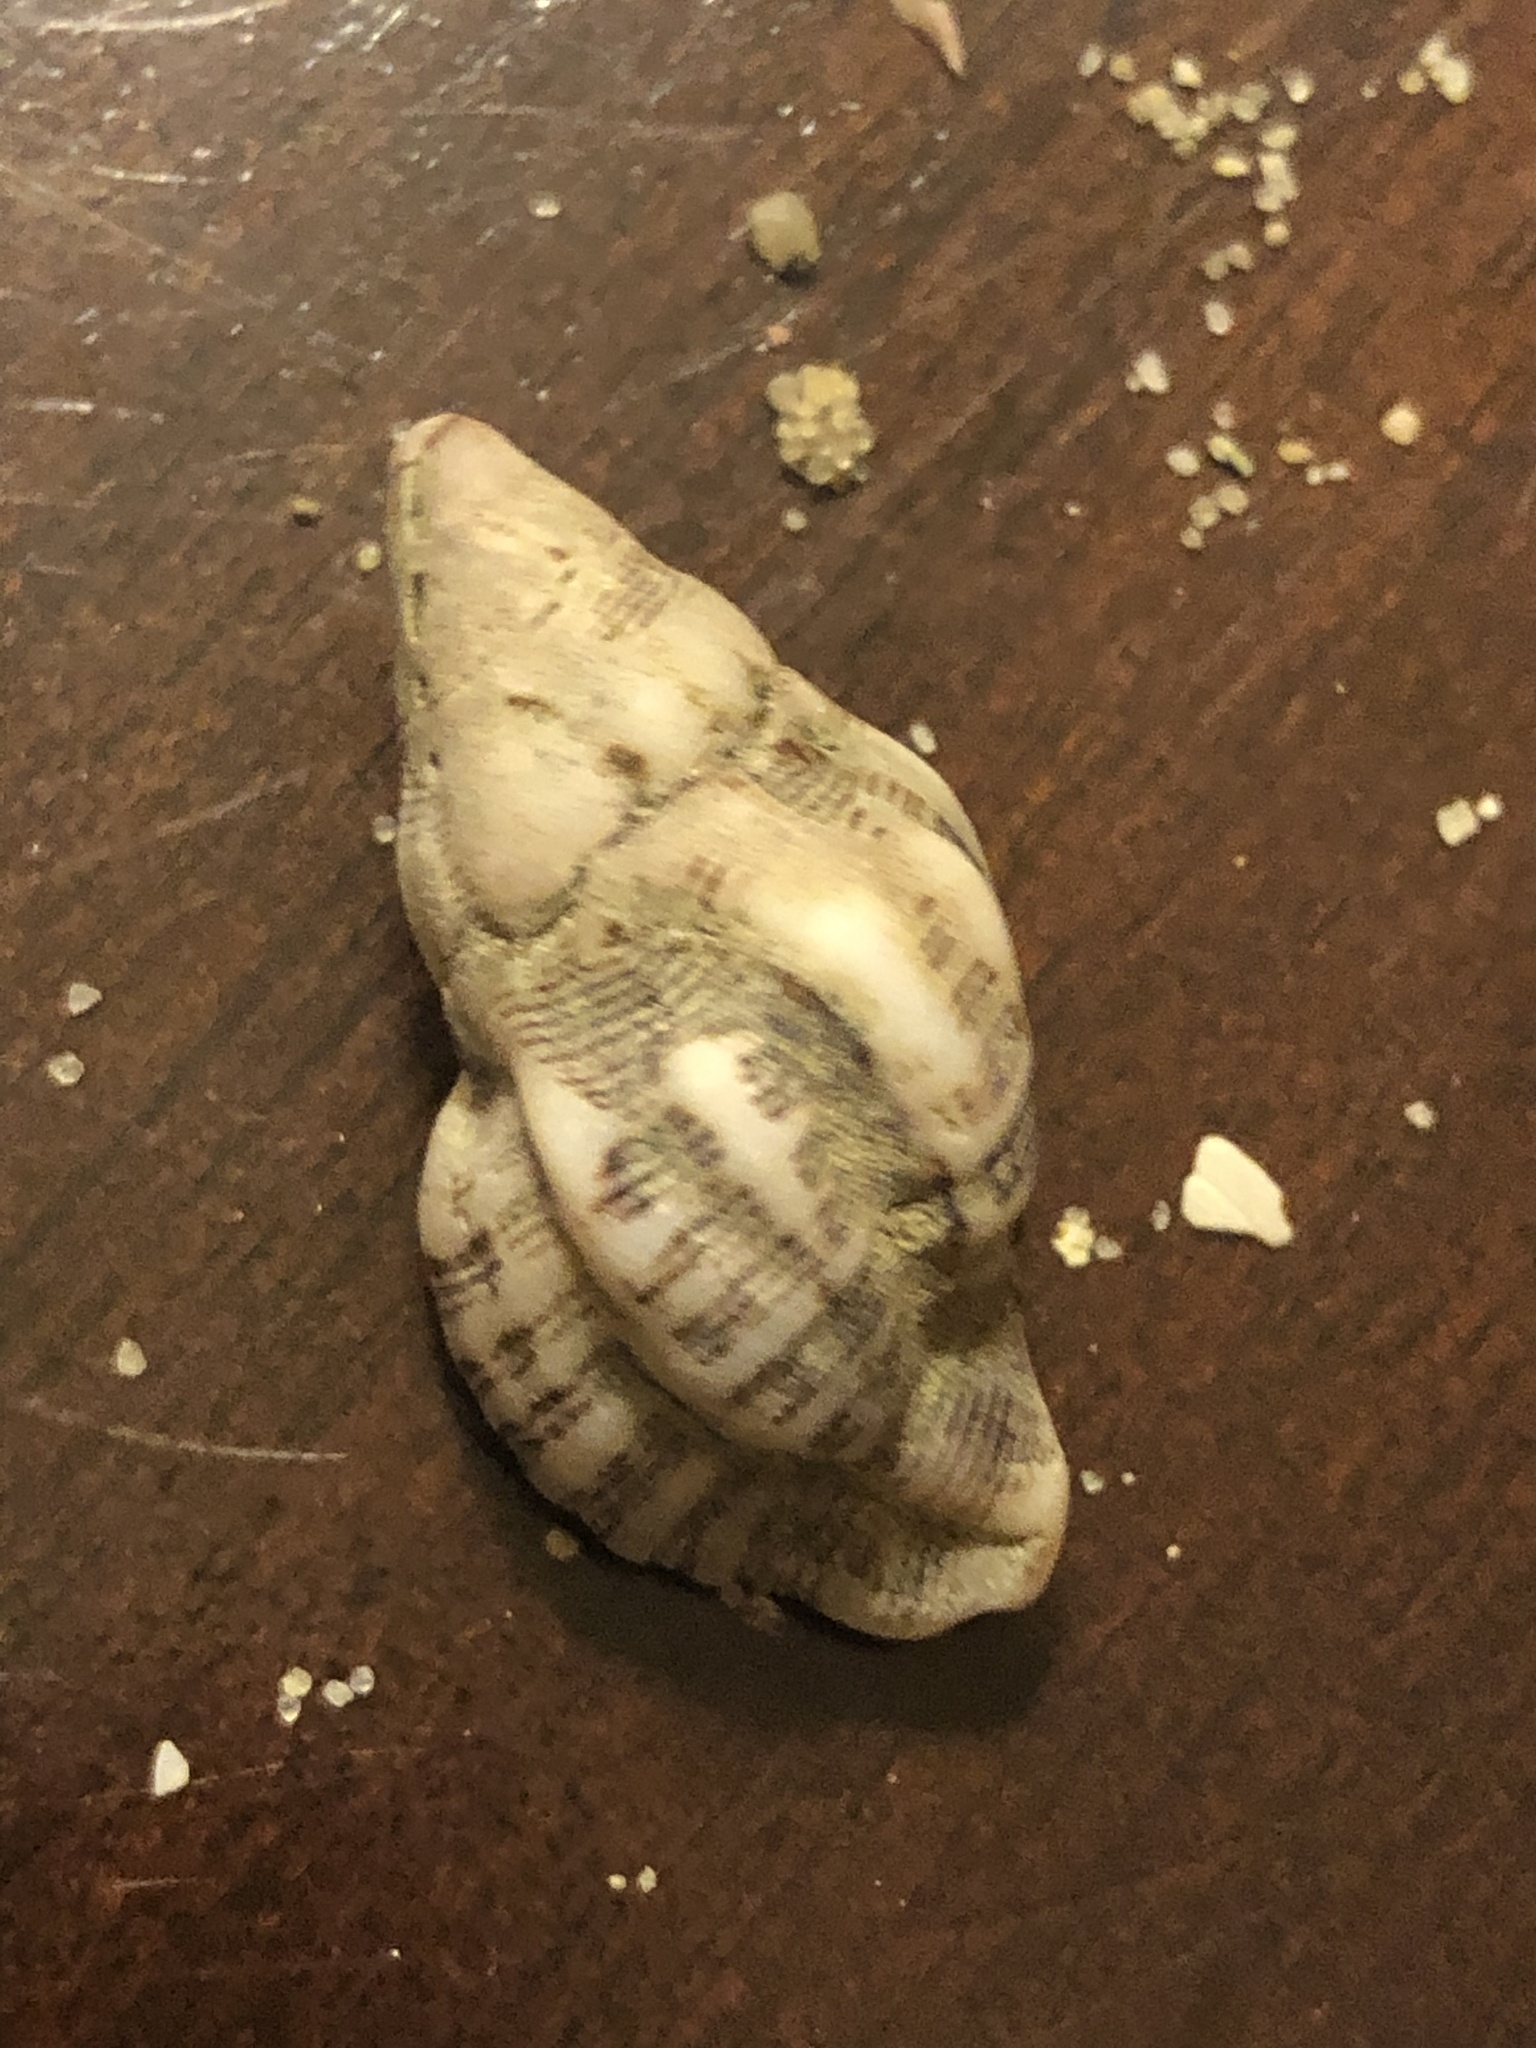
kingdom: Animalia
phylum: Mollusca
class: Gastropoda
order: Neogastropoda
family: Muricidae
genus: Roperia
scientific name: Roperia poulsoni
